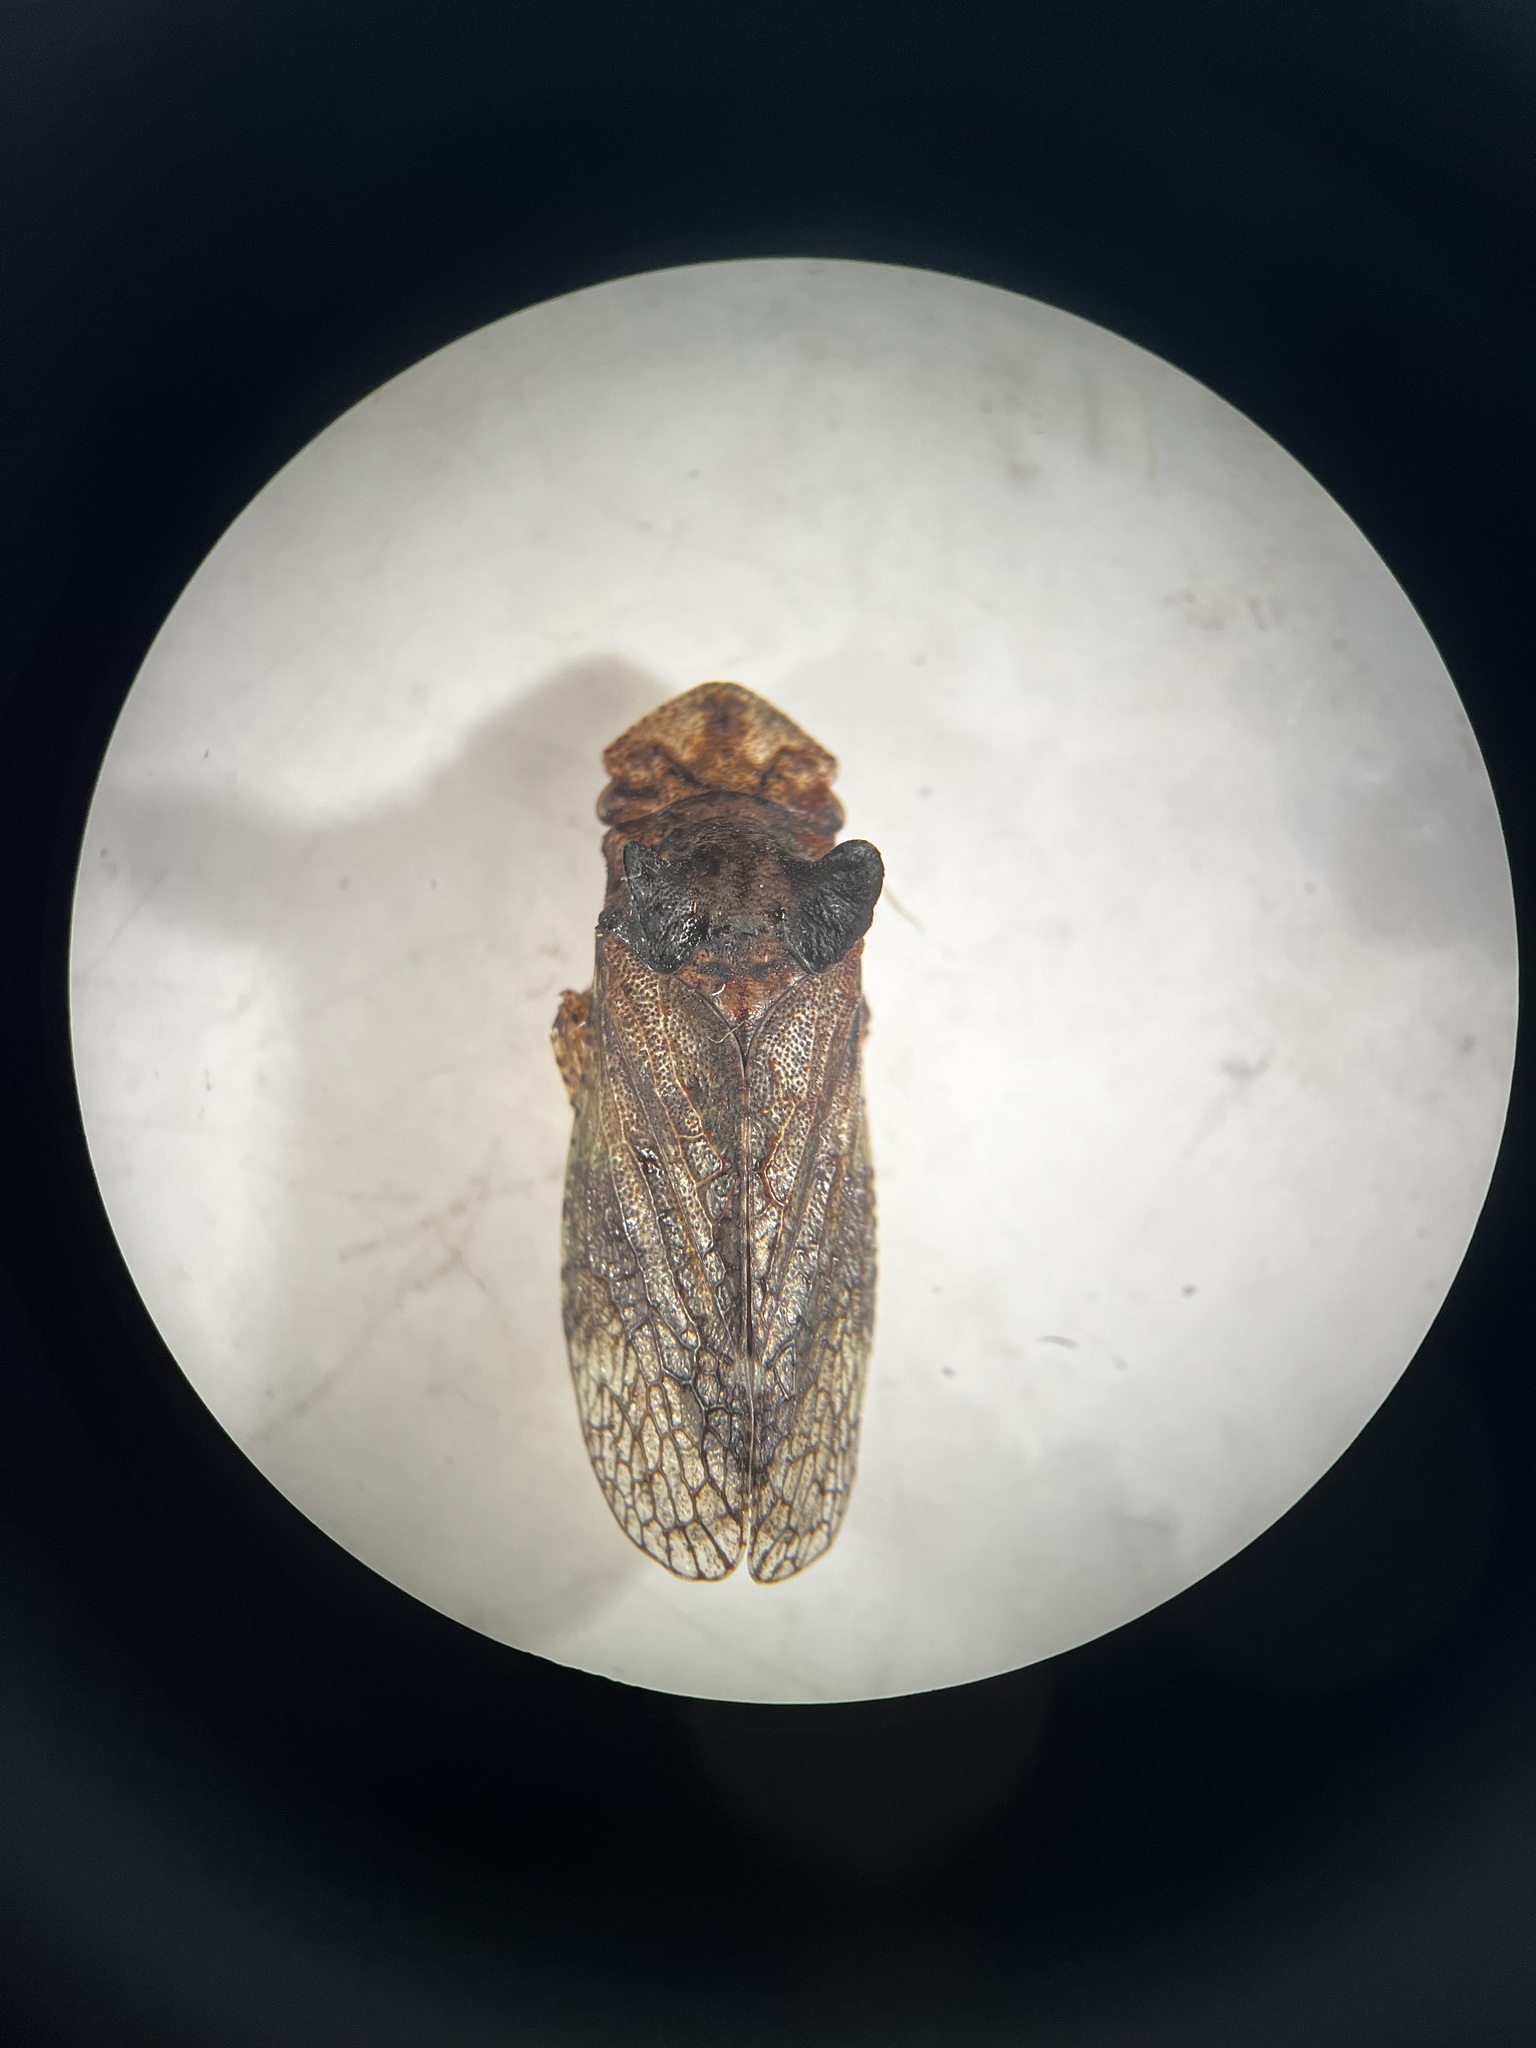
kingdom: Animalia
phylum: Arthropoda
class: Insecta
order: Hemiptera
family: Cicadellidae
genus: Ledra
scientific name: Ledra aurita
